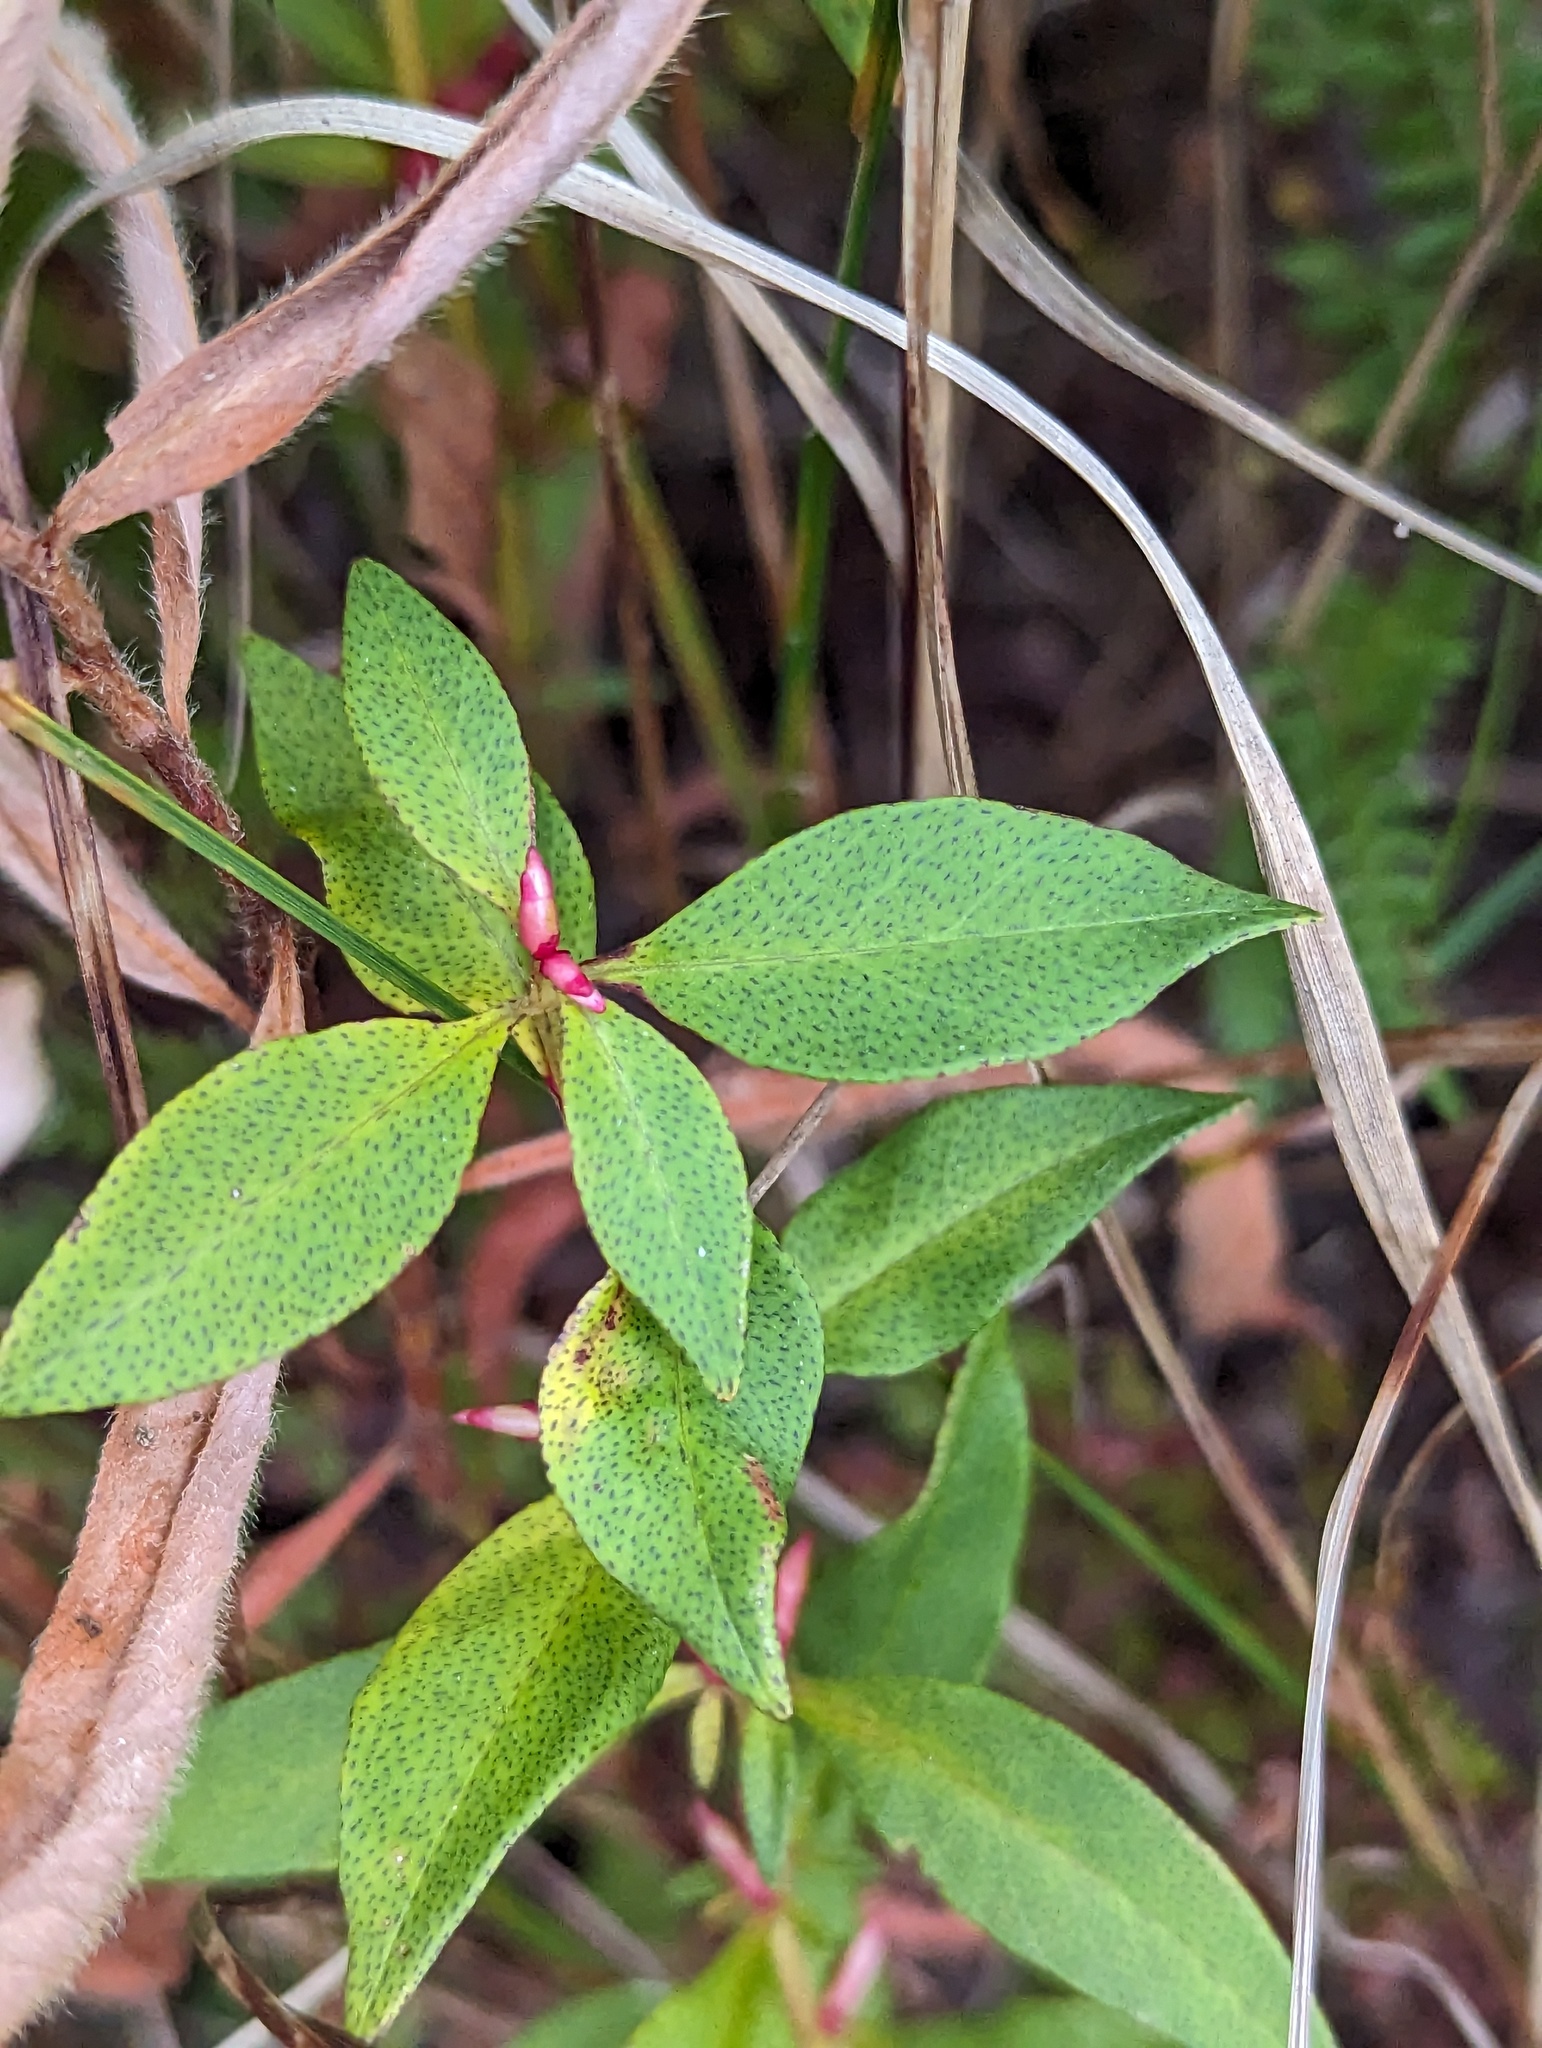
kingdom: Plantae
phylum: Tracheophyta
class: Magnoliopsida
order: Ericales
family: Primulaceae
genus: Lysimachia
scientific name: Lysimachia thyrsiflora
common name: Tufted loosestrife
